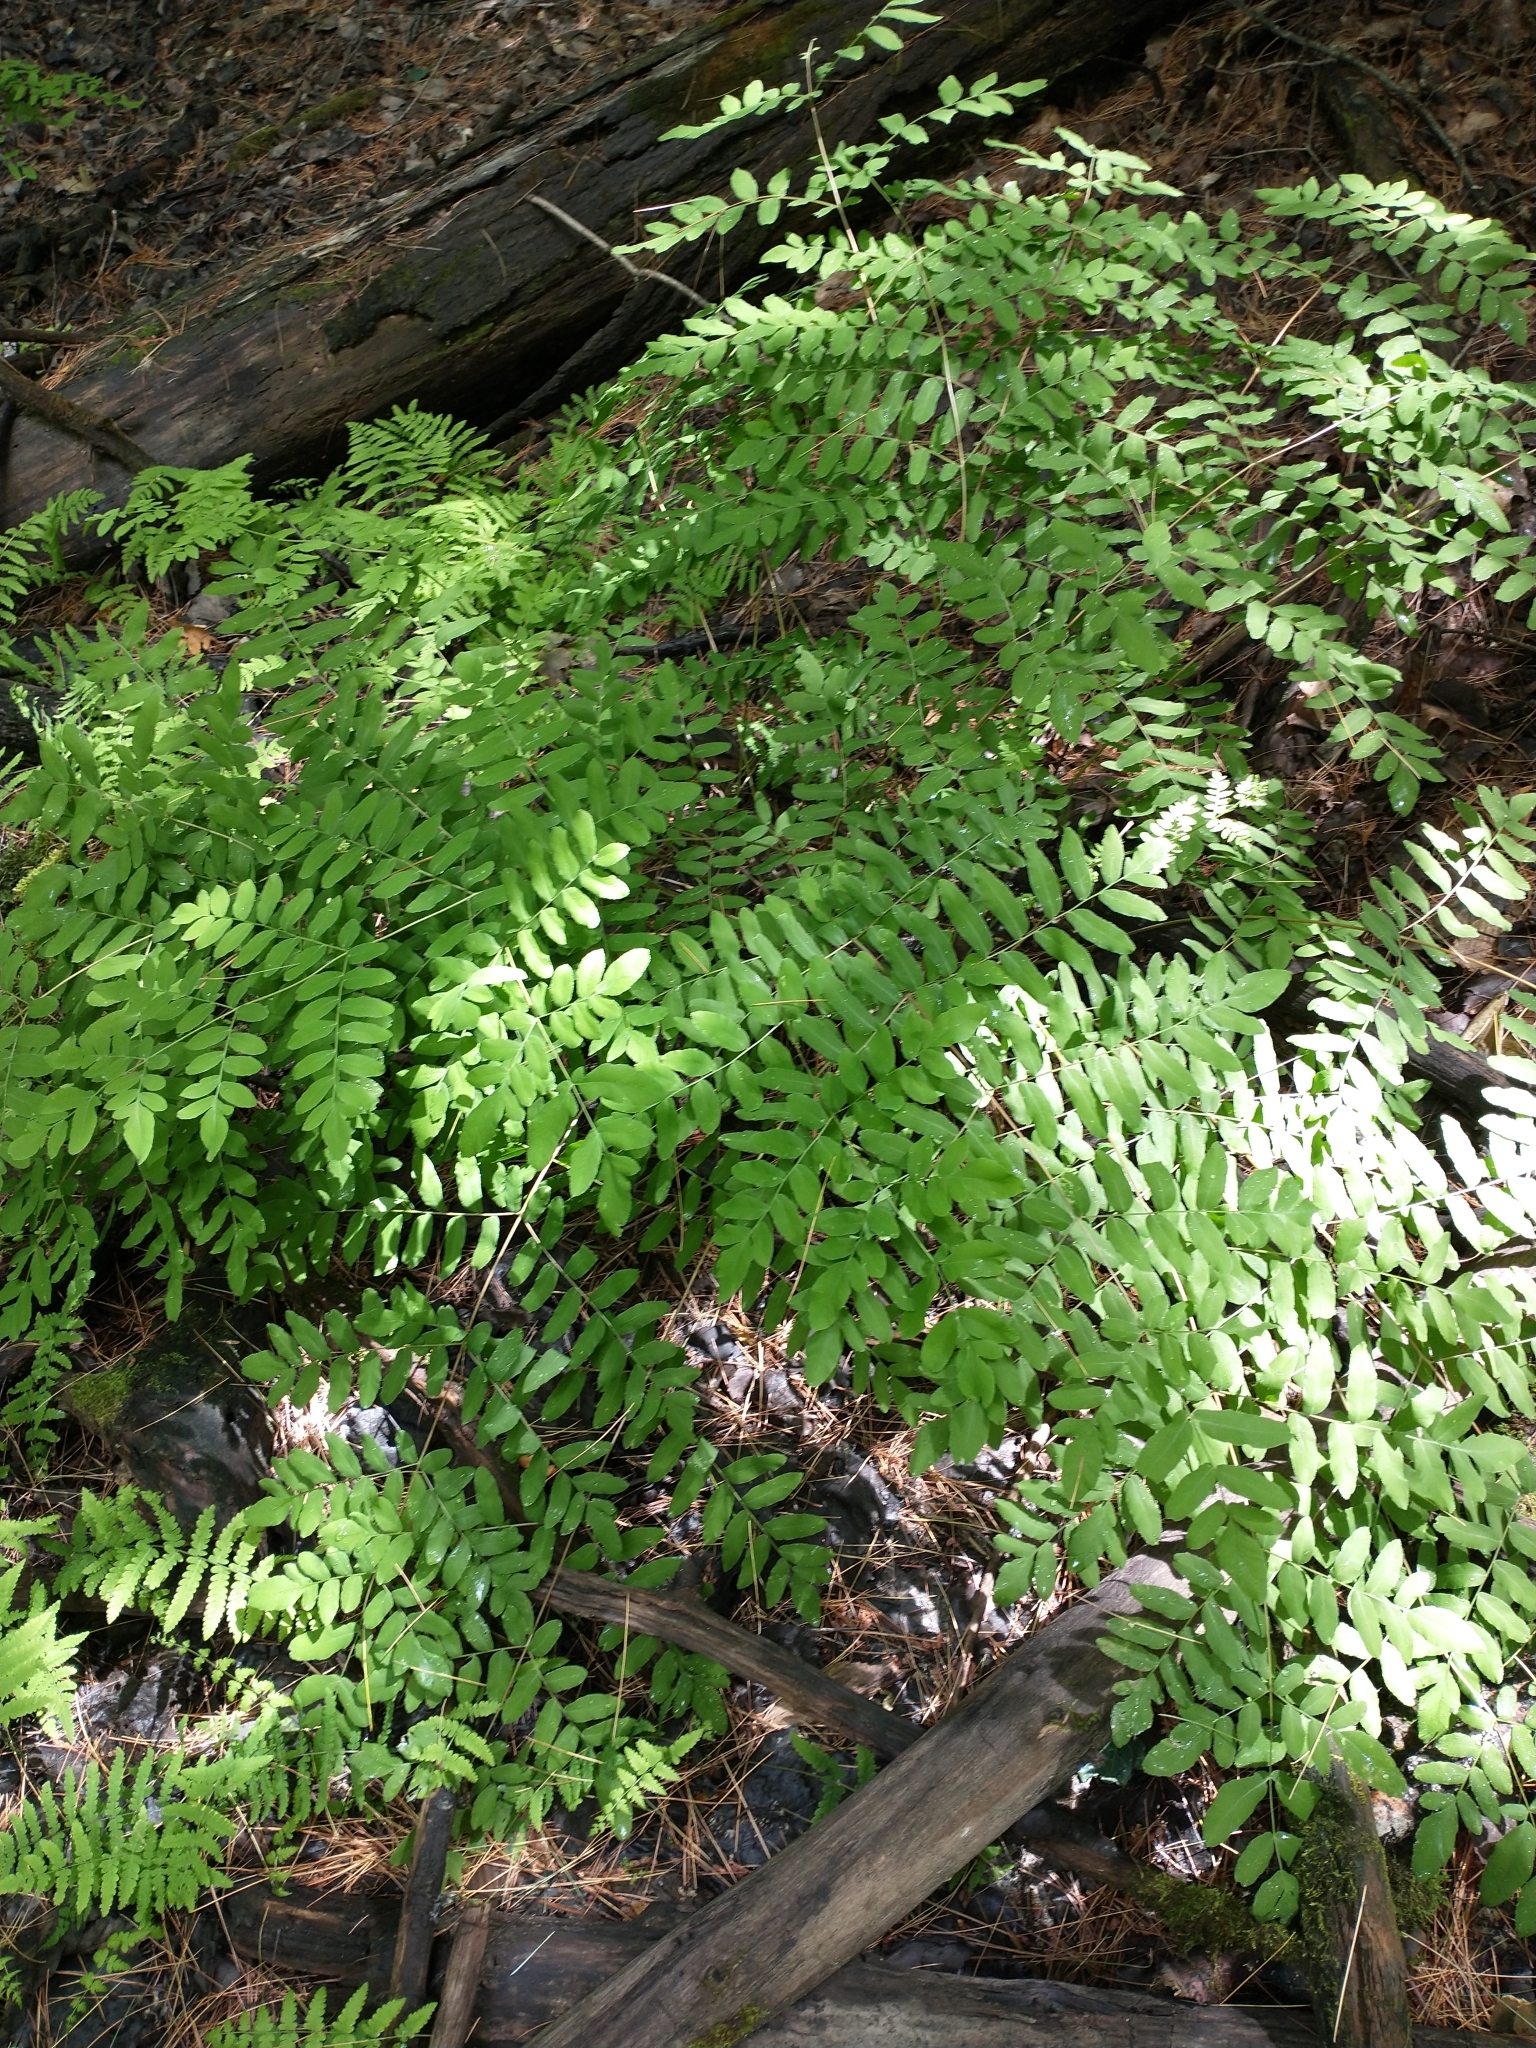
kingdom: Plantae
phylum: Tracheophyta
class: Polypodiopsida
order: Osmundales
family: Osmundaceae
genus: Osmunda
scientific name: Osmunda spectabilis
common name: American royal fern
